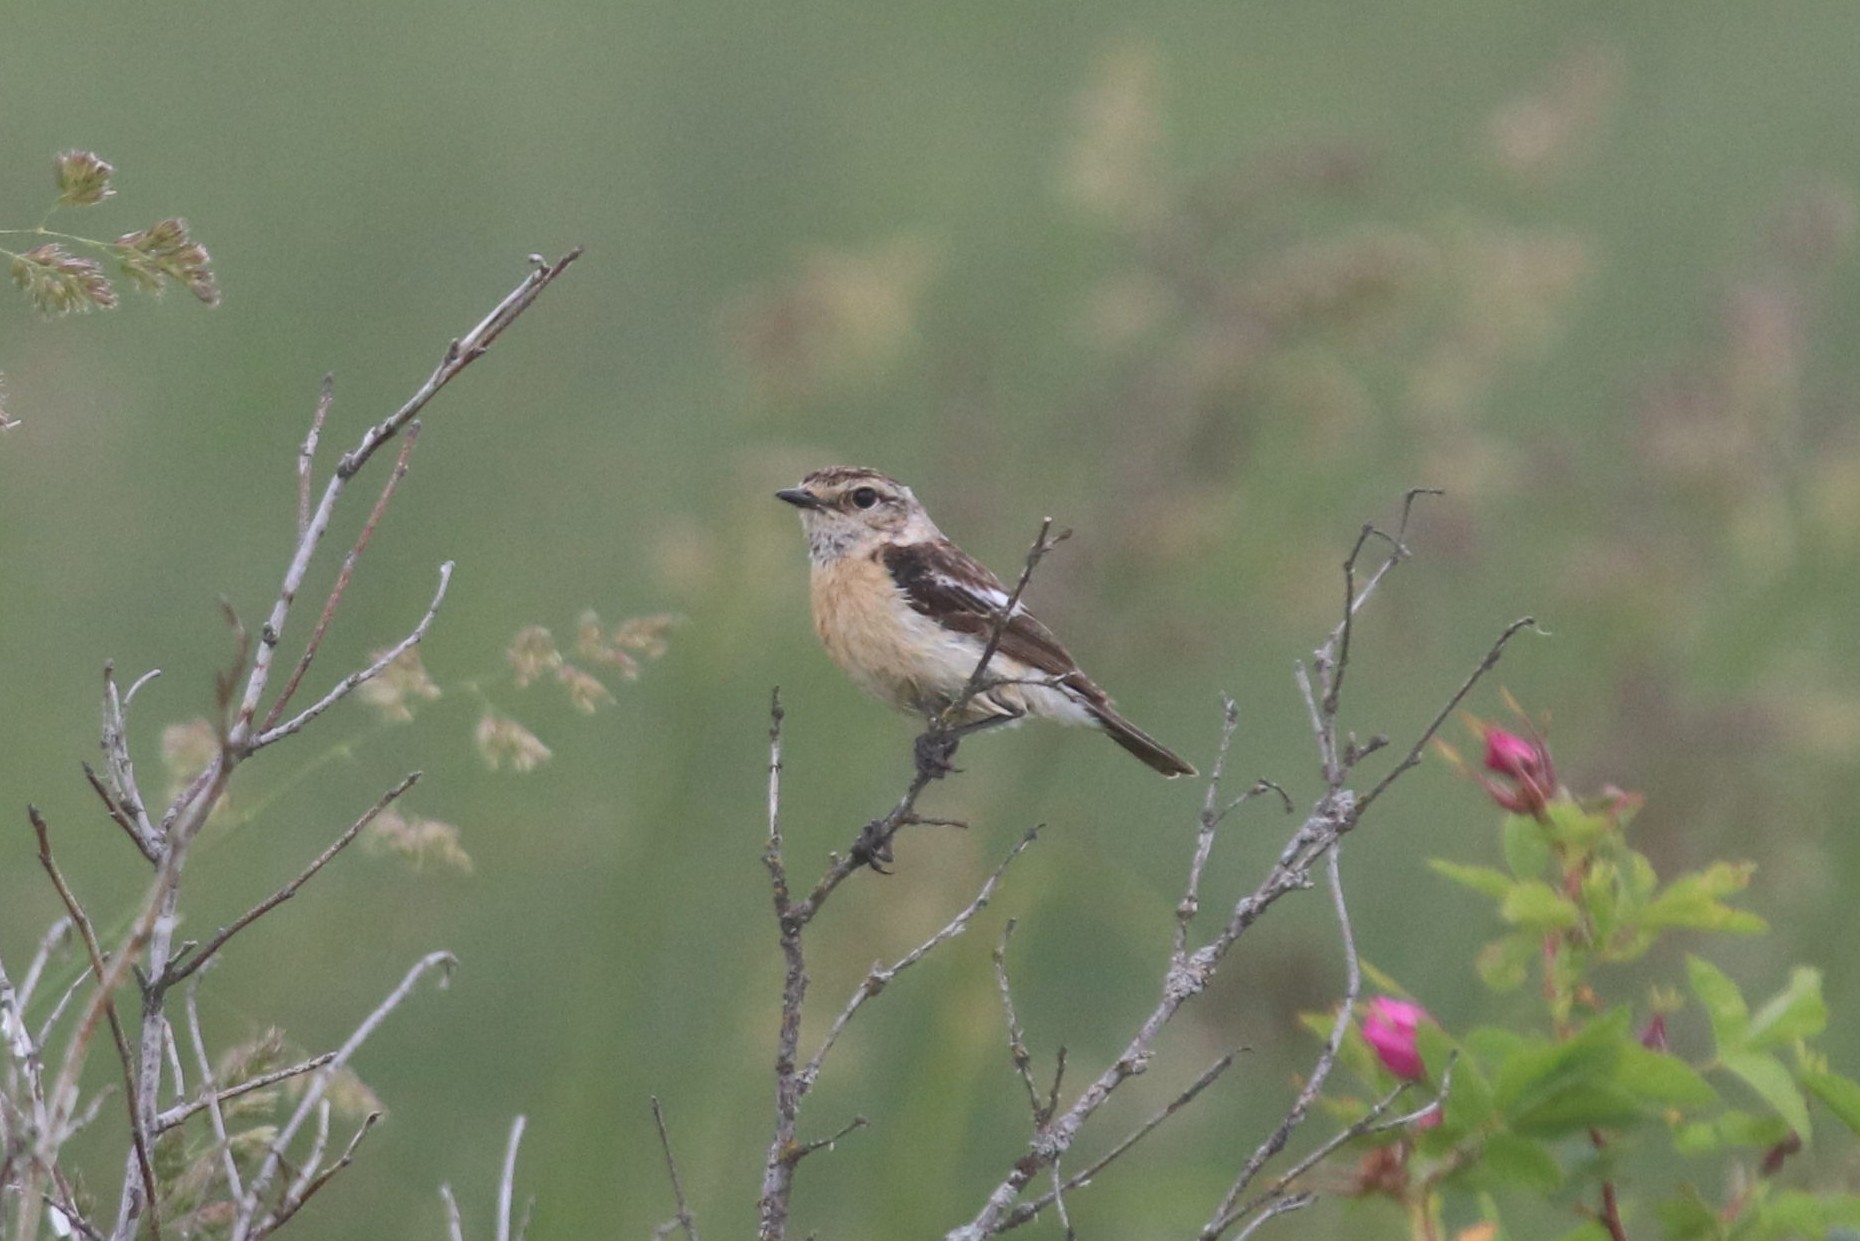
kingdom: Animalia
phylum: Chordata
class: Aves
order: Passeriformes
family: Muscicapidae
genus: Saxicola
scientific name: Saxicola maurus
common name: Siberian stonechat
